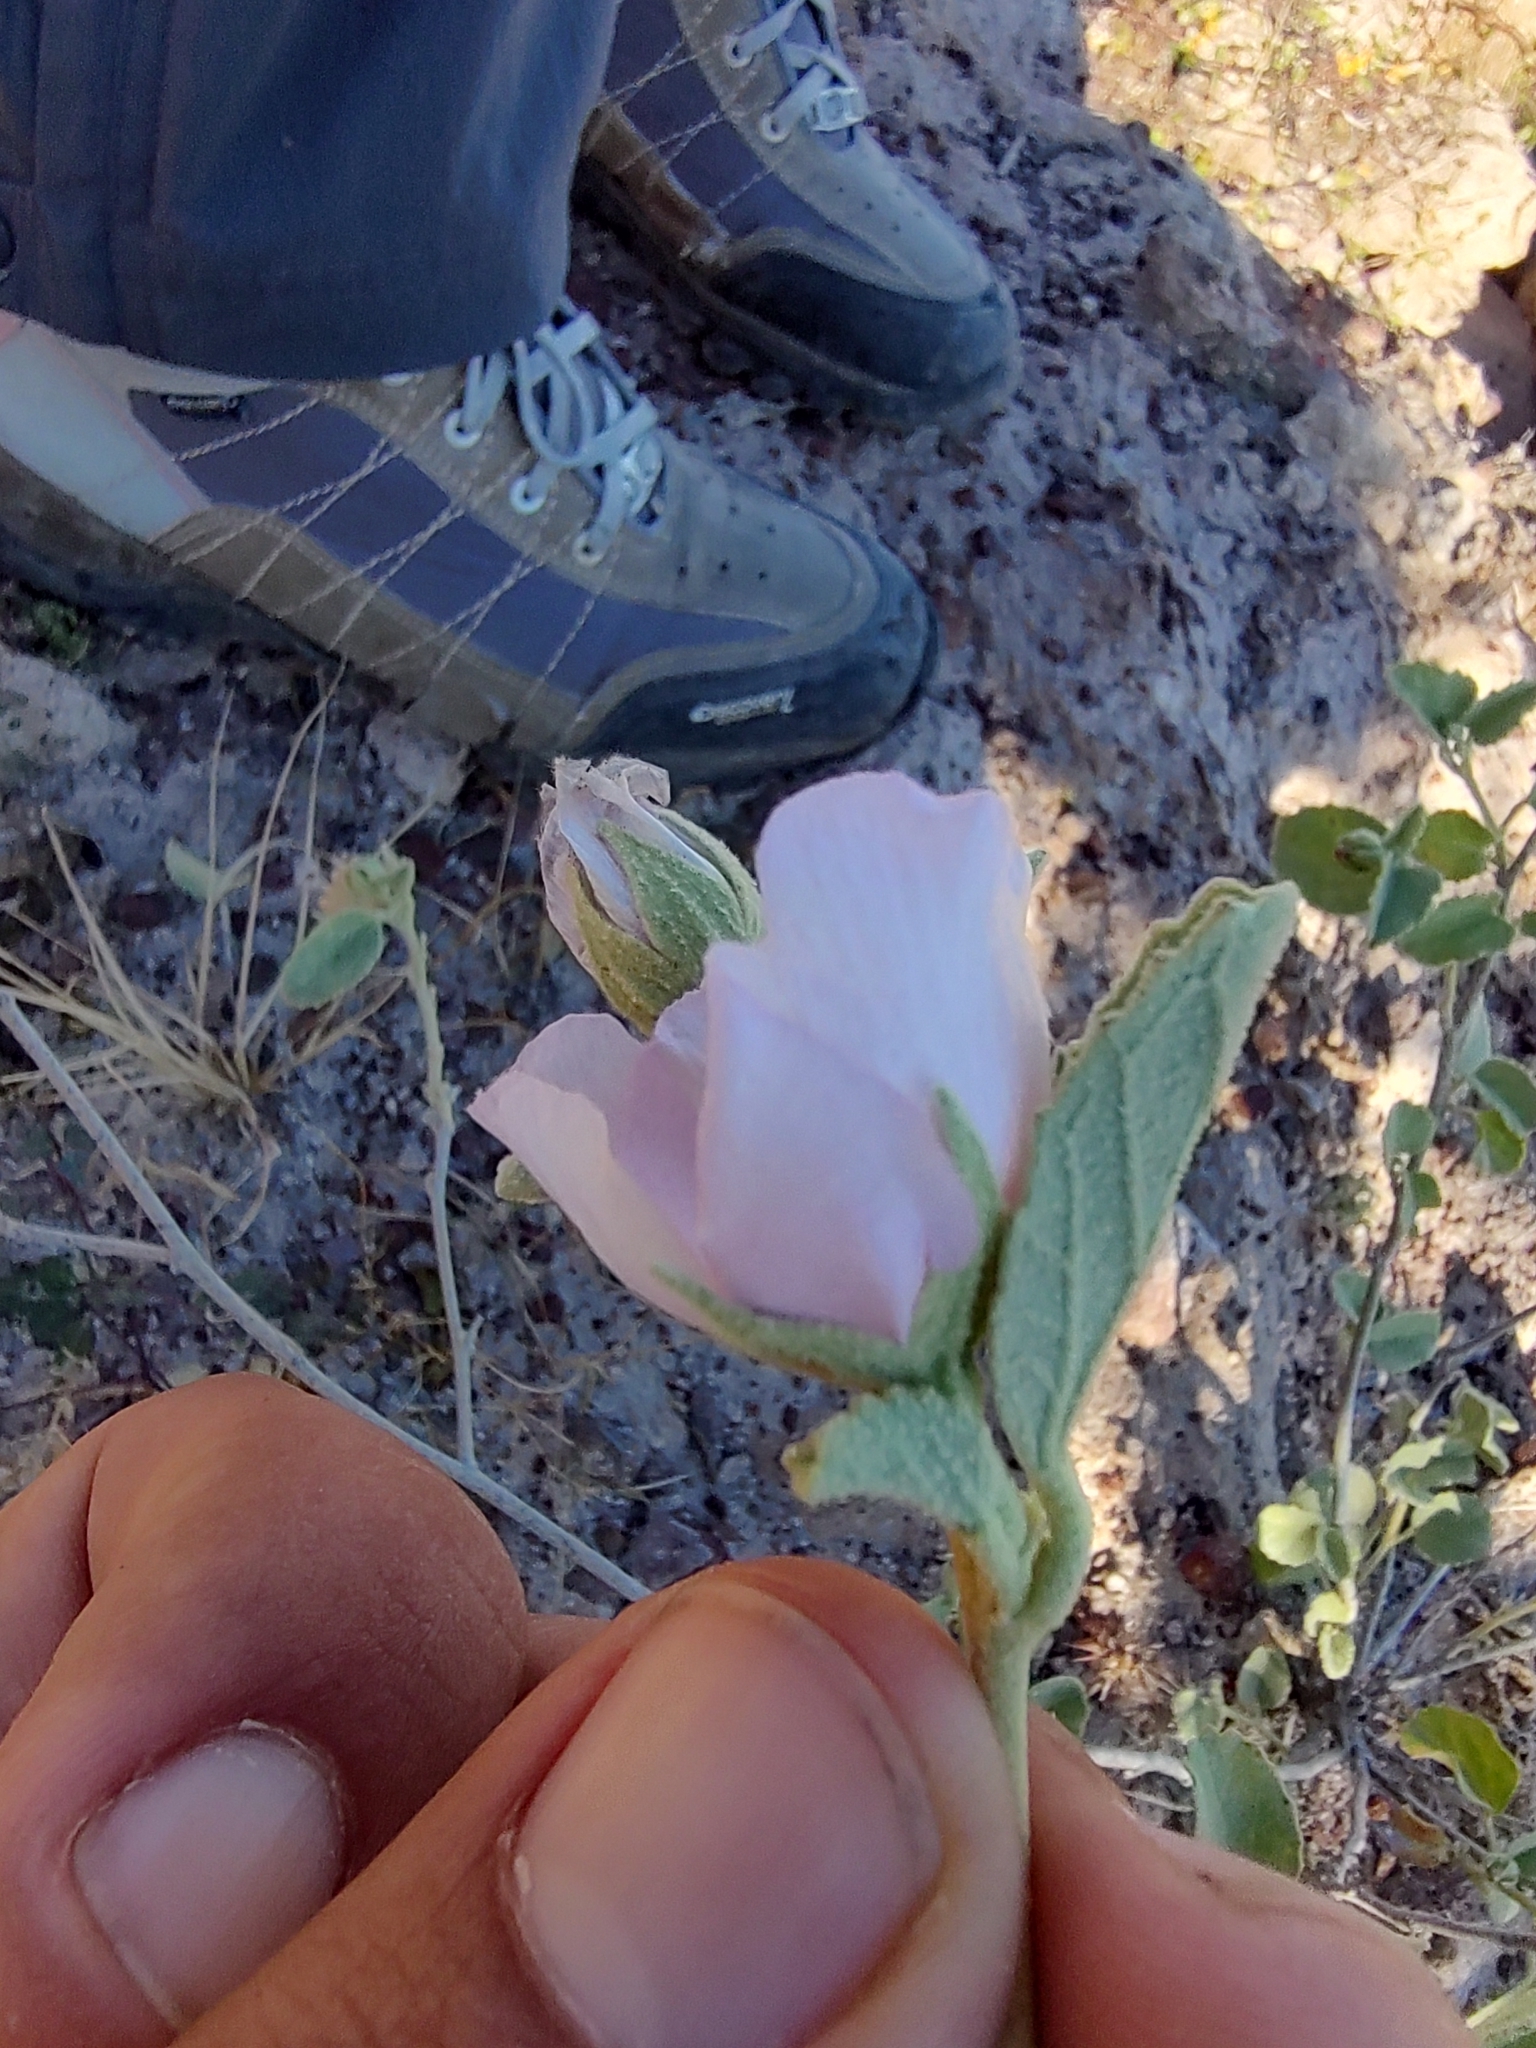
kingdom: Plantae
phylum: Tracheophyta
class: Magnoliopsida
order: Malvales
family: Malvaceae
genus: Hibiscus
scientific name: Hibiscus denudatus
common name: Paleface
